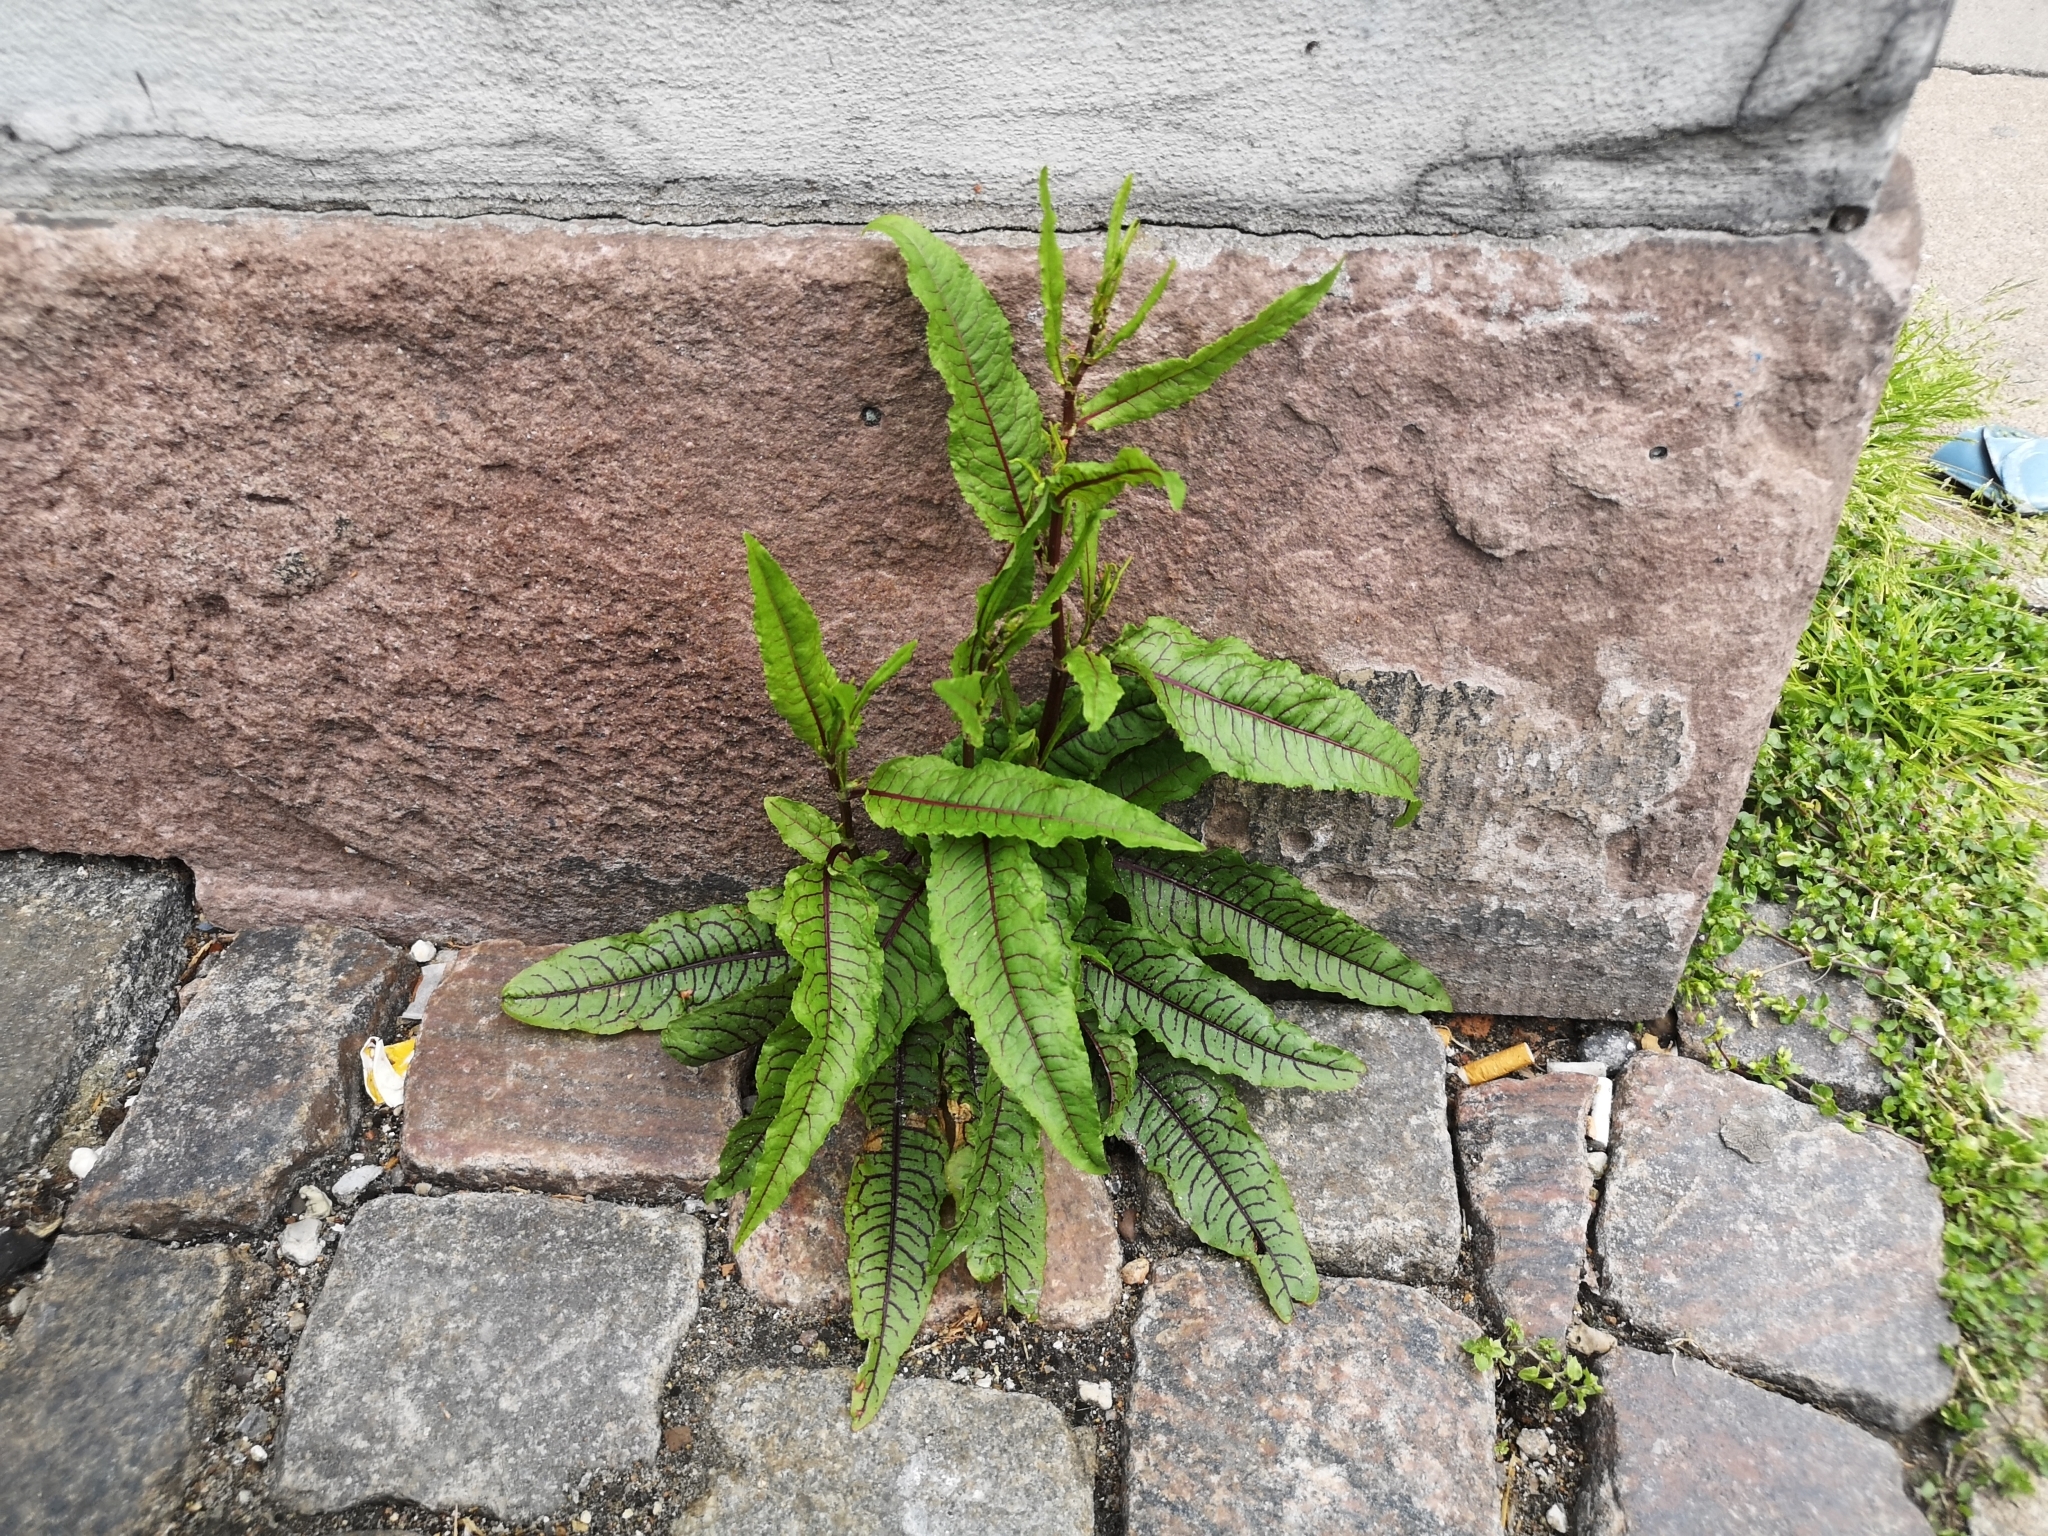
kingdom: Plantae
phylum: Tracheophyta
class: Magnoliopsida
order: Caryophyllales
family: Polygonaceae
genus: Rumex
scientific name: Rumex sanguineus
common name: Wood dock
